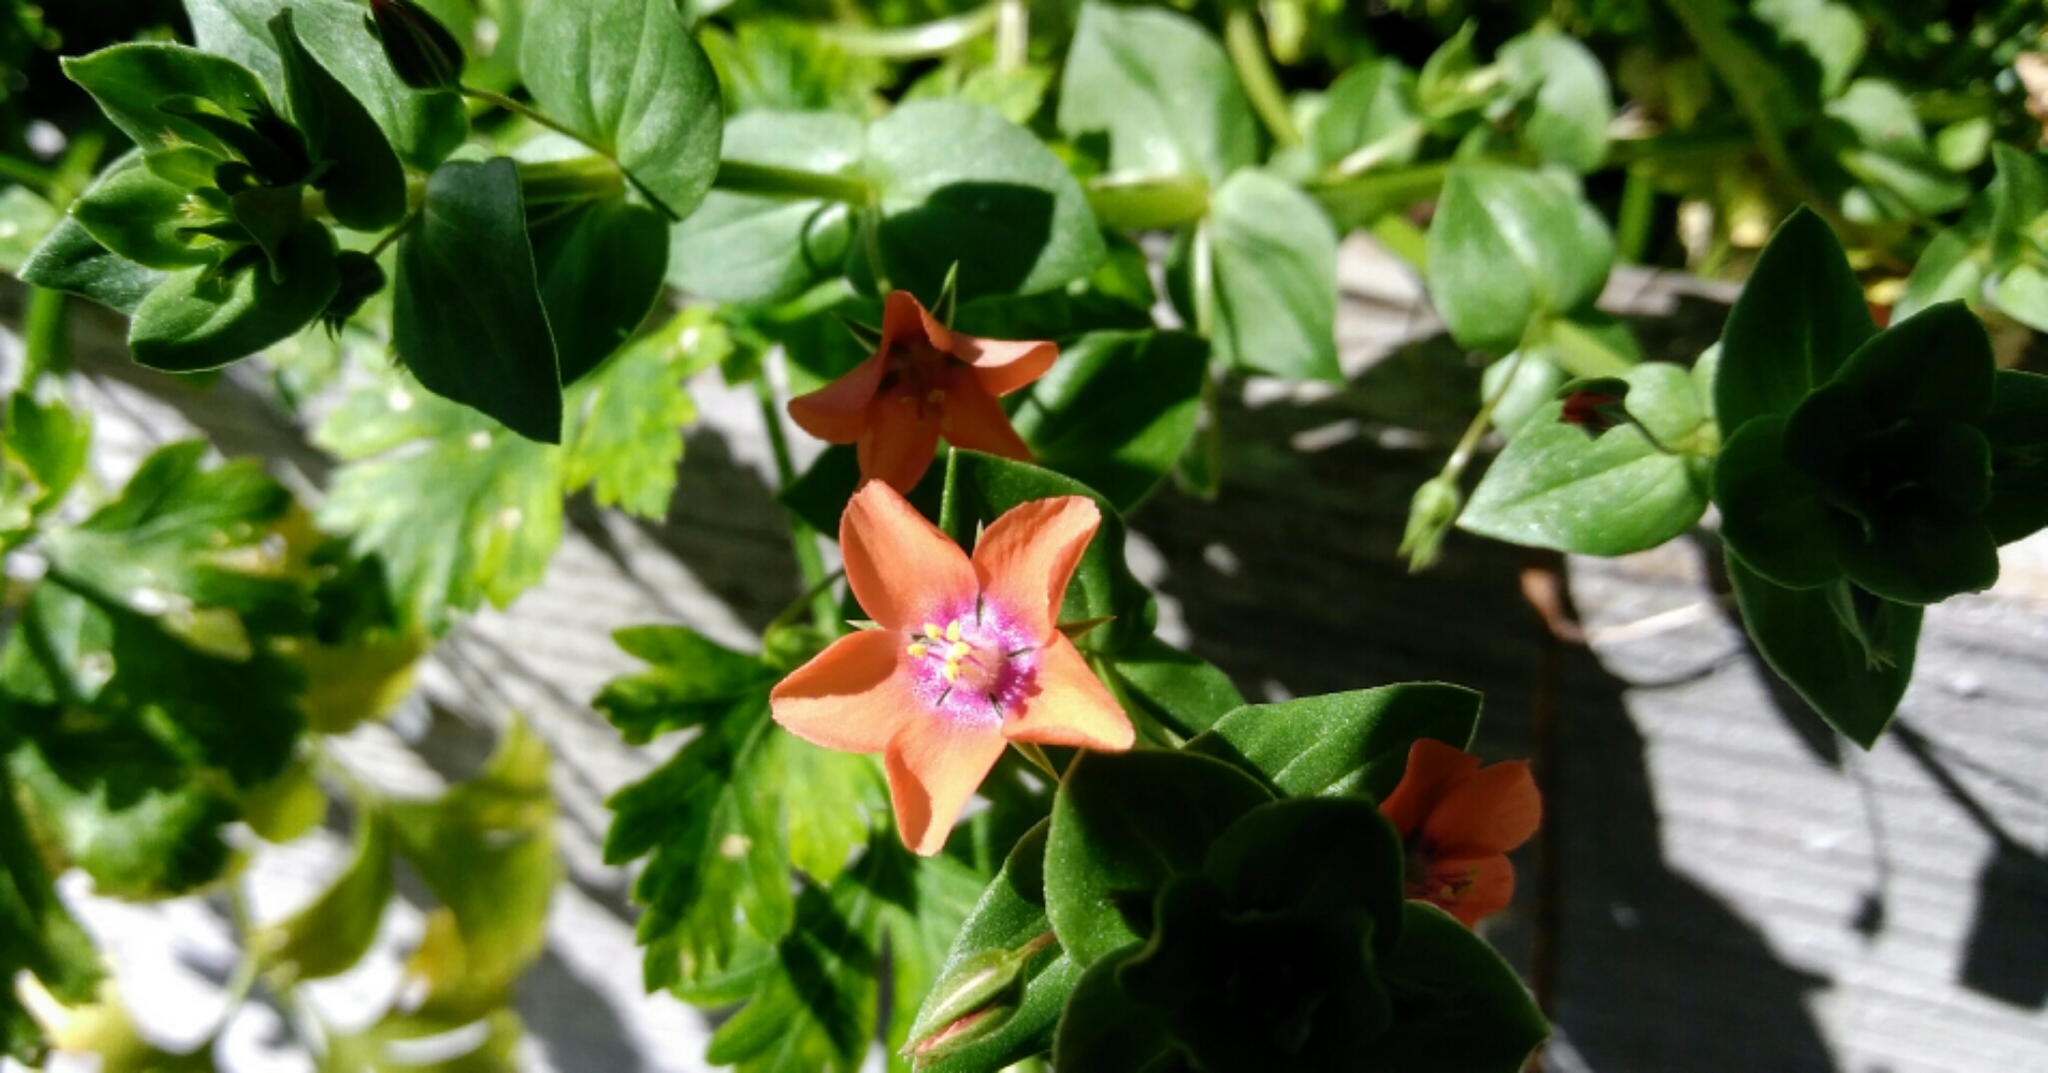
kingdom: Plantae
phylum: Tracheophyta
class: Magnoliopsida
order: Ericales
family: Primulaceae
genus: Lysimachia
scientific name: Lysimachia arvensis
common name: Scarlet pimpernel
